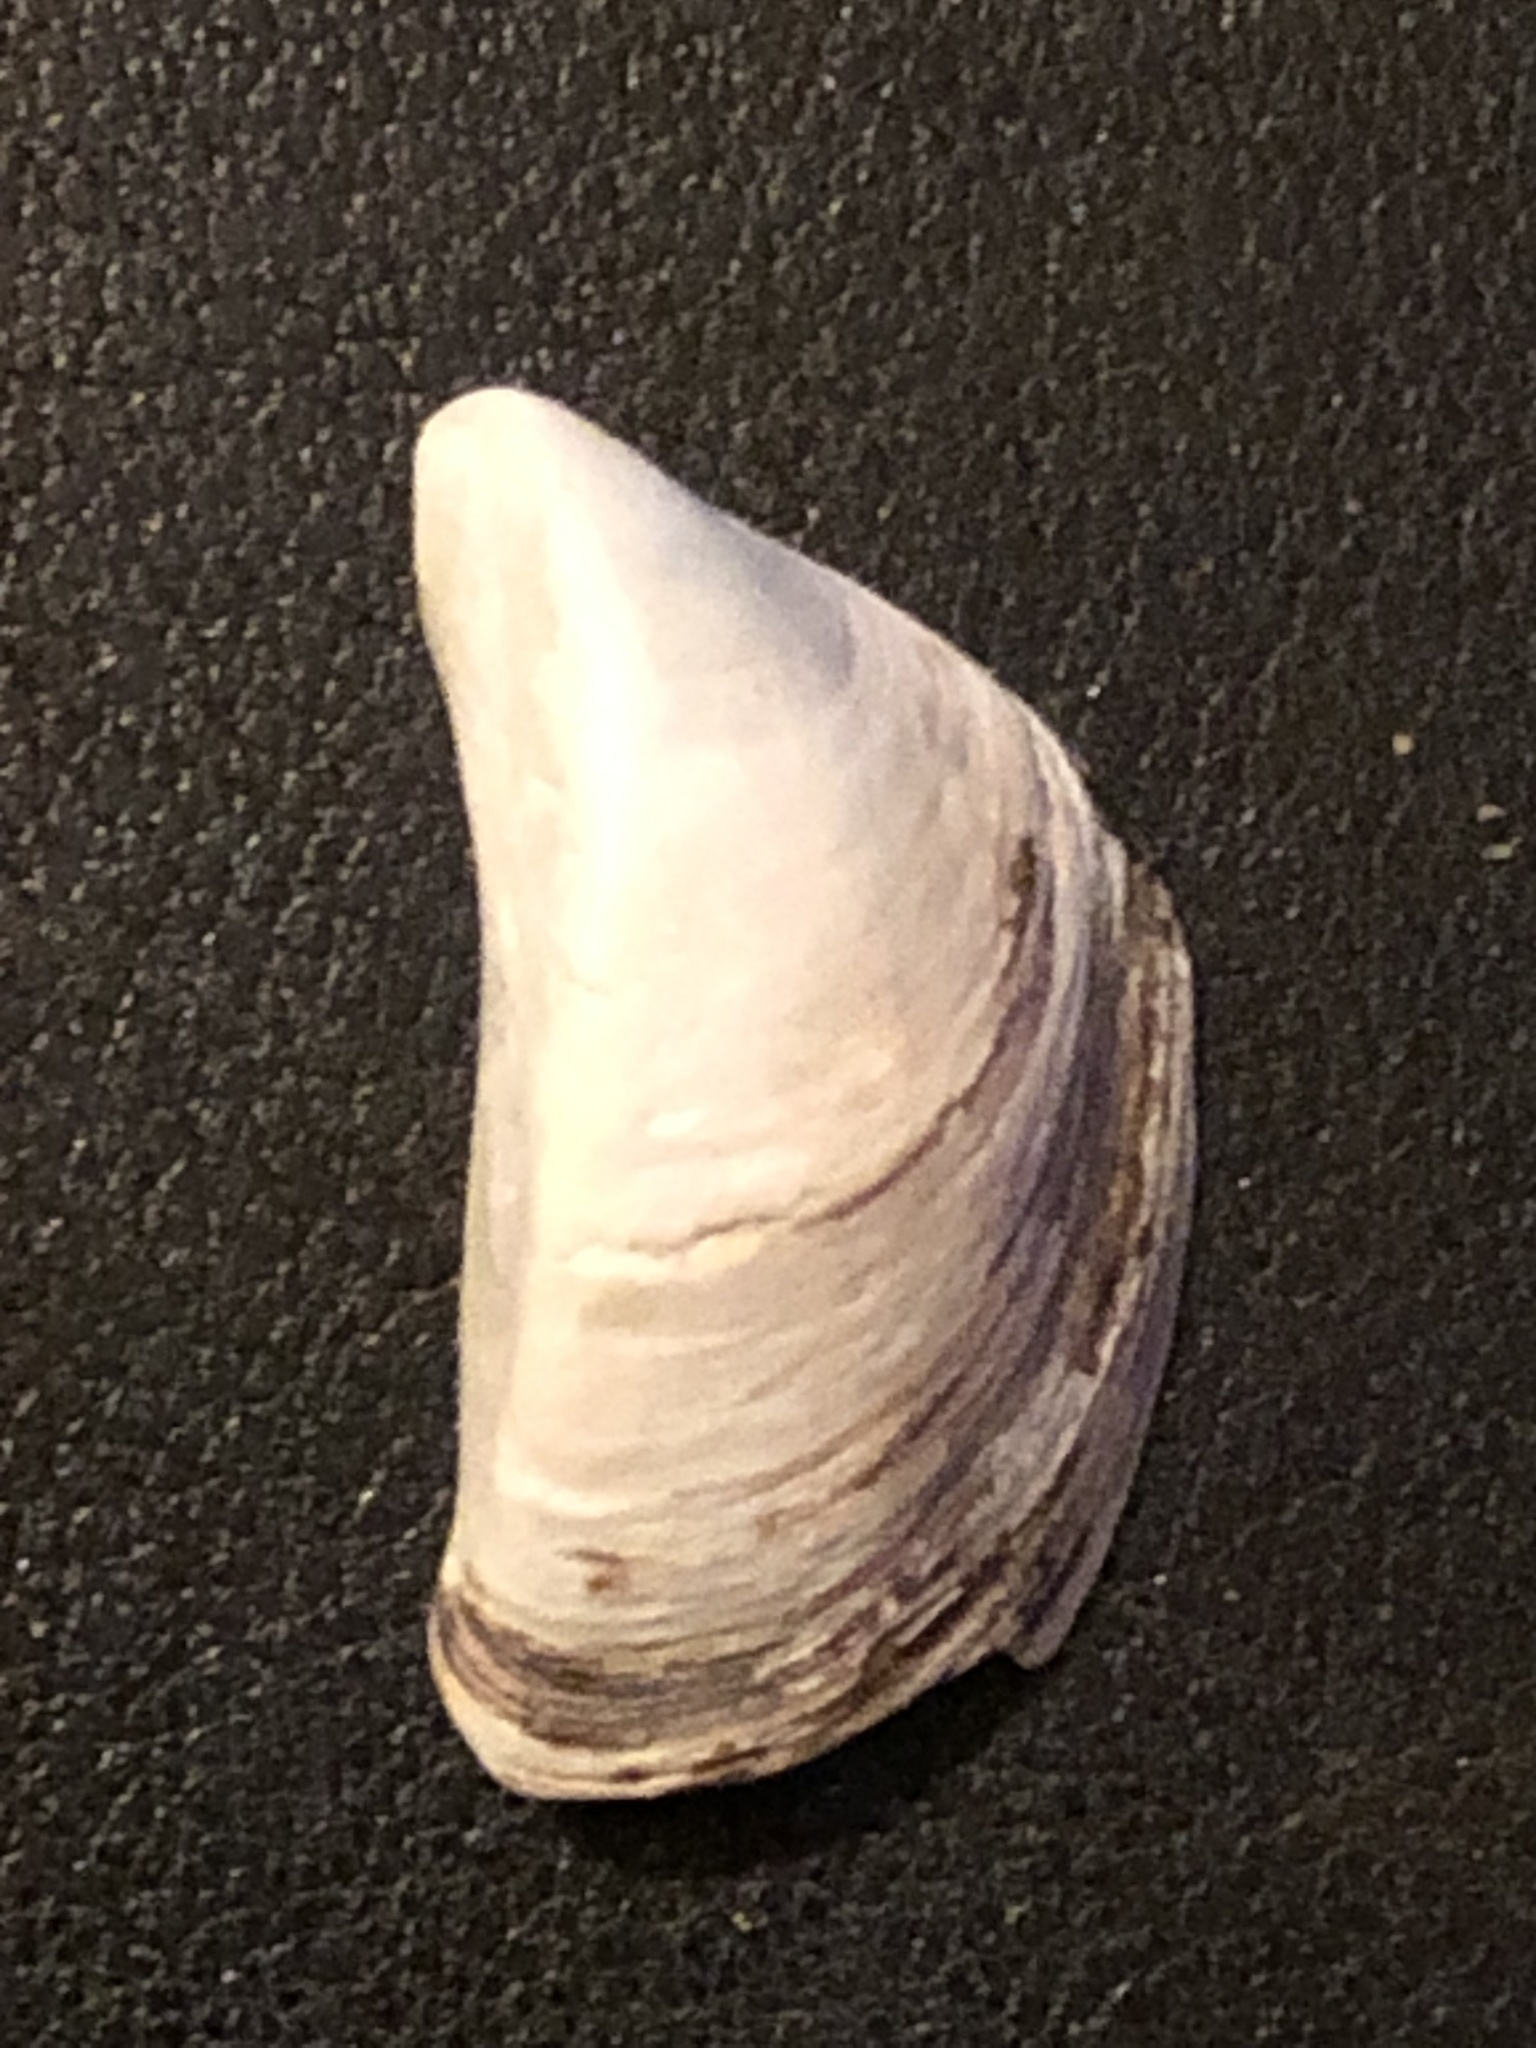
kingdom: Animalia
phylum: Mollusca
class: Bivalvia
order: Myida
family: Dreissenidae
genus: Dreissena
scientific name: Dreissena polymorpha
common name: Zebra mussel
